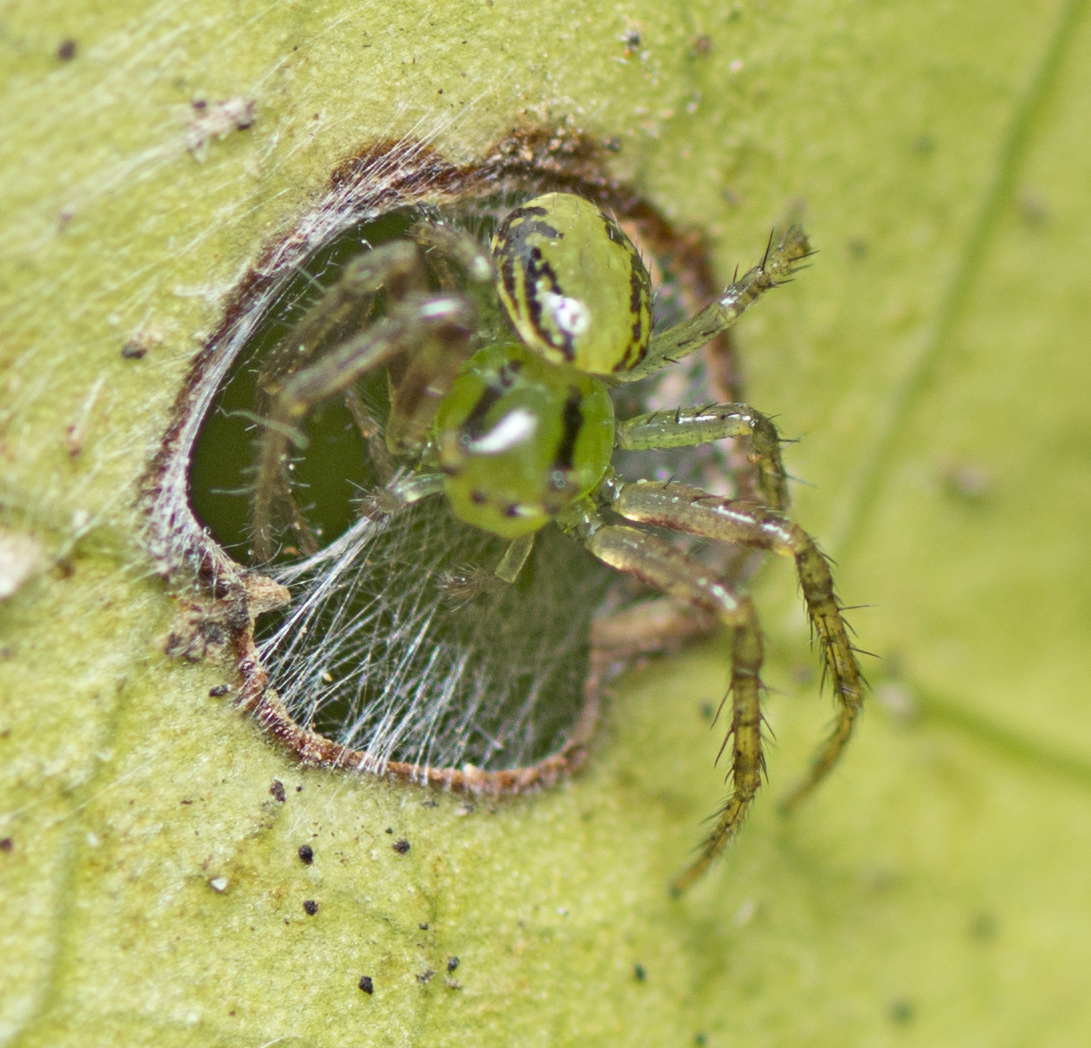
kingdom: Animalia
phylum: Arthropoda
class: Arachnida
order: Araneae
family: Thomisidae
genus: Australomisidia
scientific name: Australomisidia cruentata
